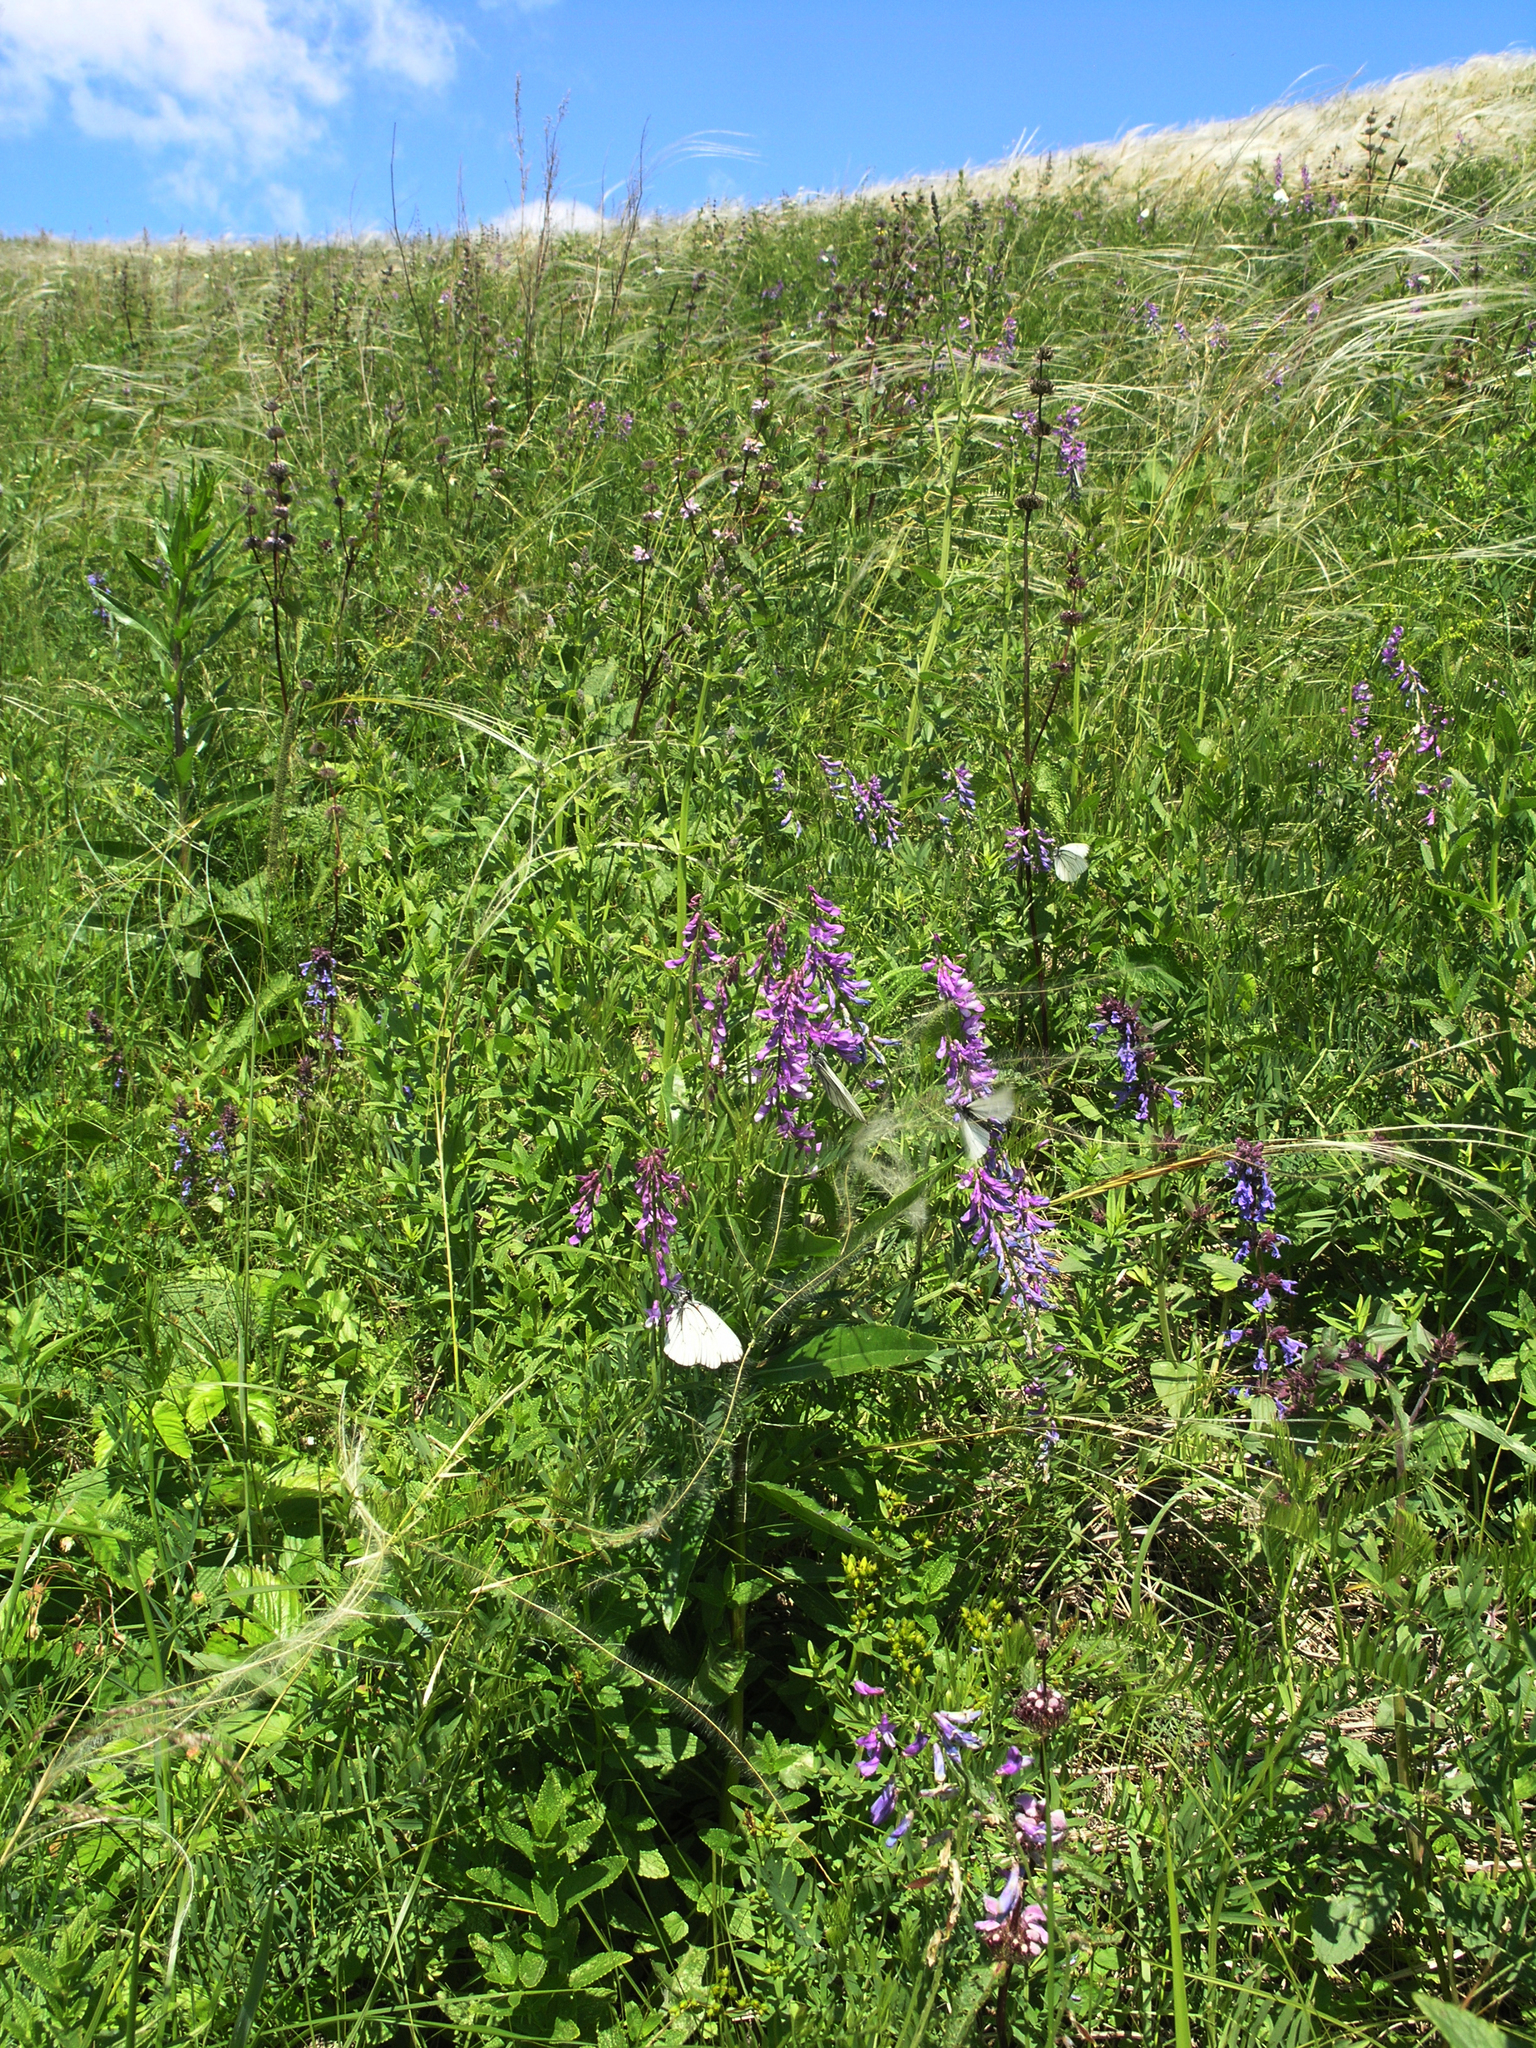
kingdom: Plantae
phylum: Tracheophyta
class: Magnoliopsida
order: Fabales
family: Fabaceae
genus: Vicia
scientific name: Vicia tenuifolia
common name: Fine-leaved vetch
